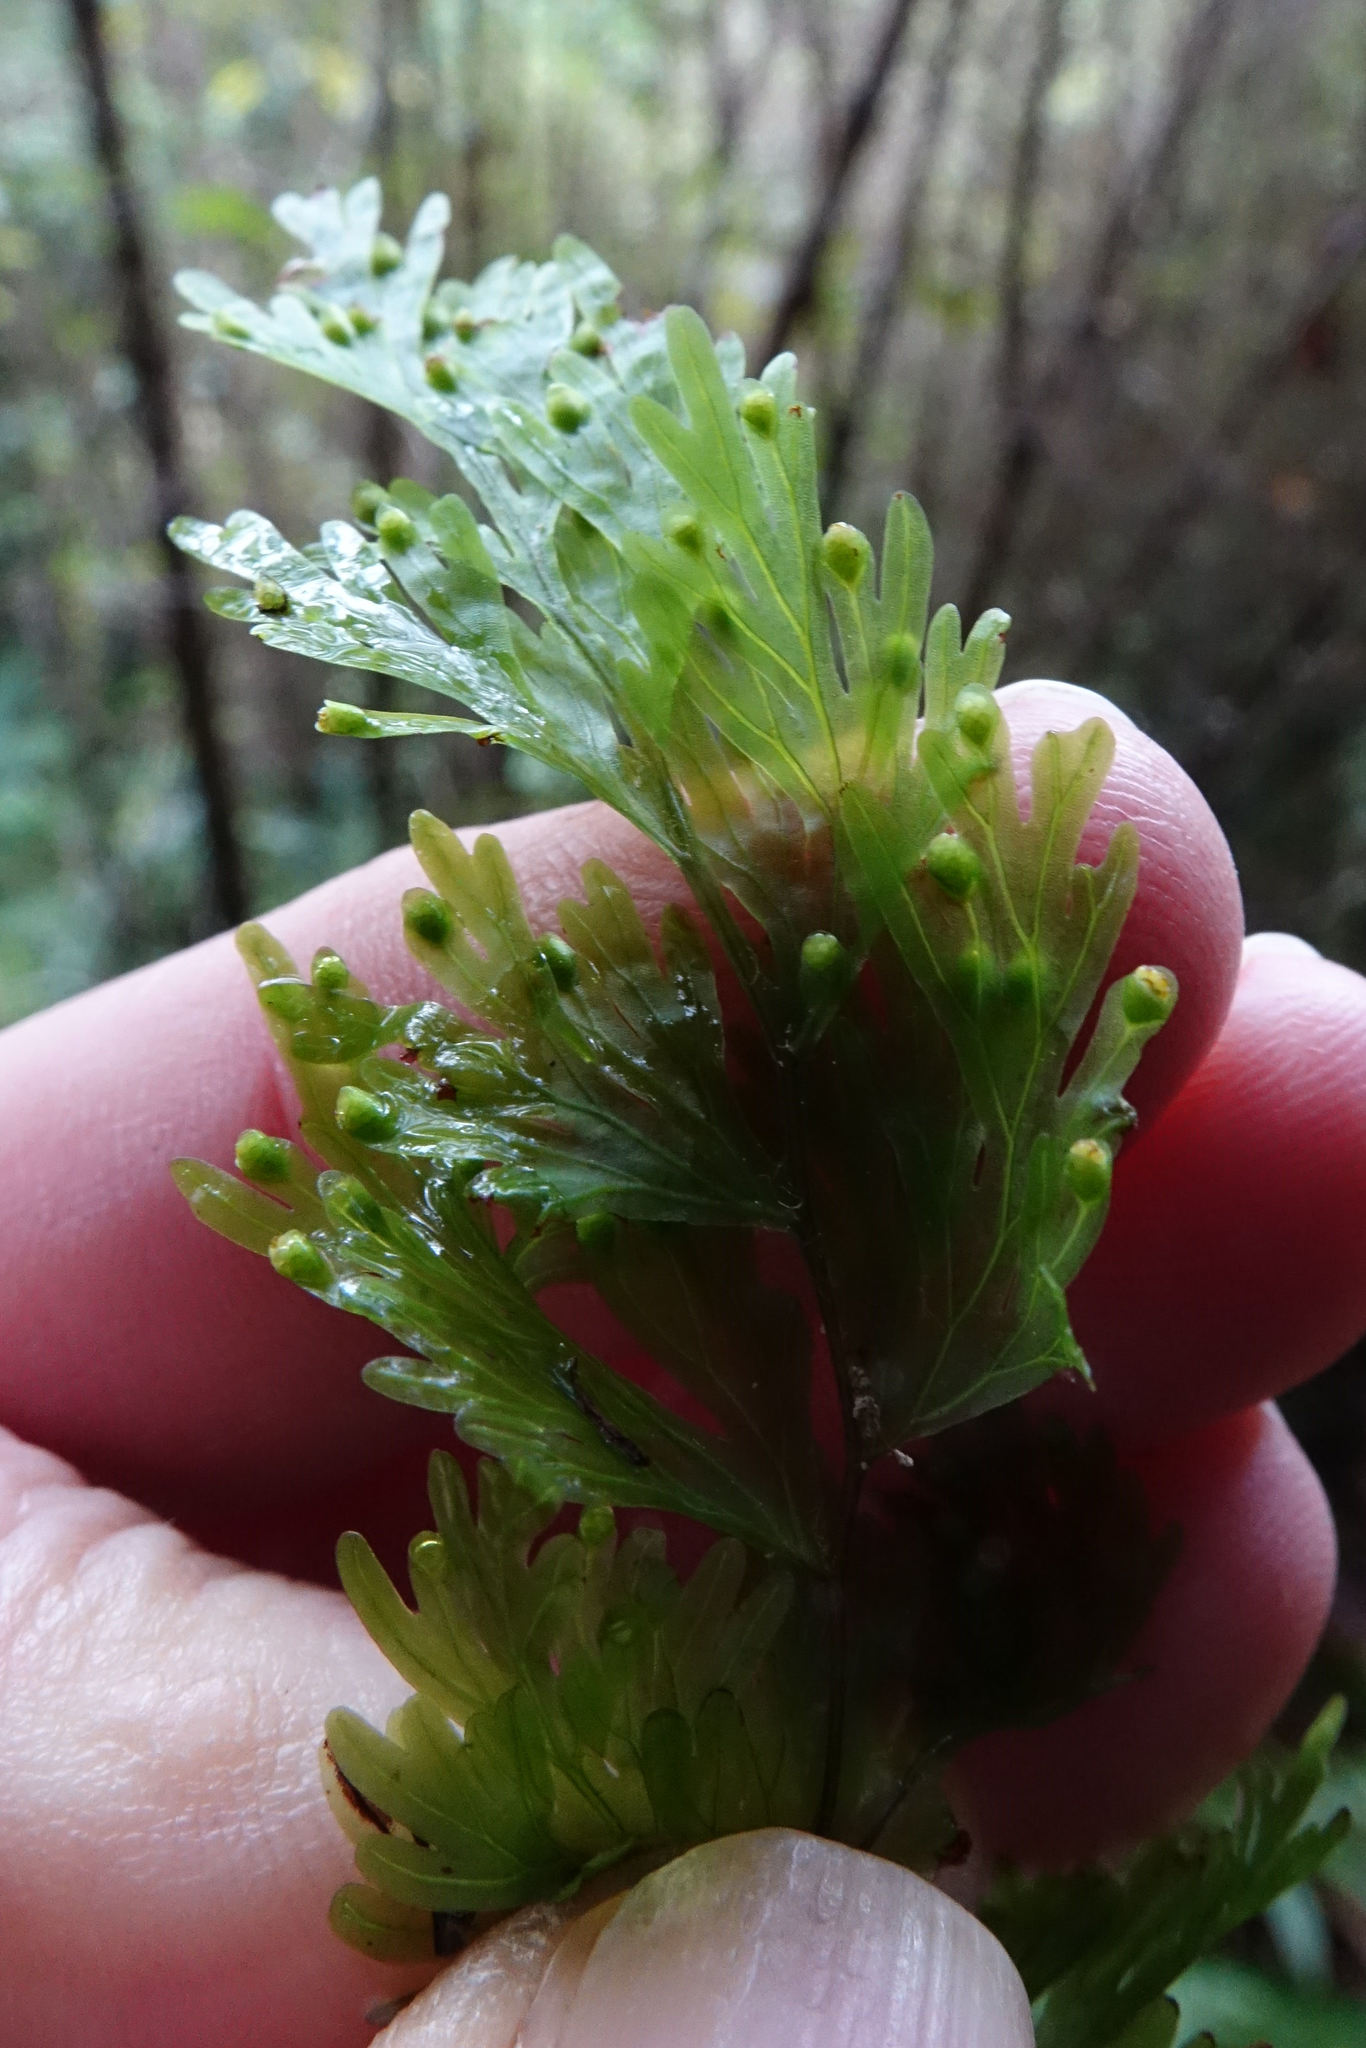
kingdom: Plantae
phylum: Tracheophyta
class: Polypodiopsida
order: Hymenophyllales
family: Hymenophyllaceae
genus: Hymenophyllum
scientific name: Hymenophyllum flabellatum
